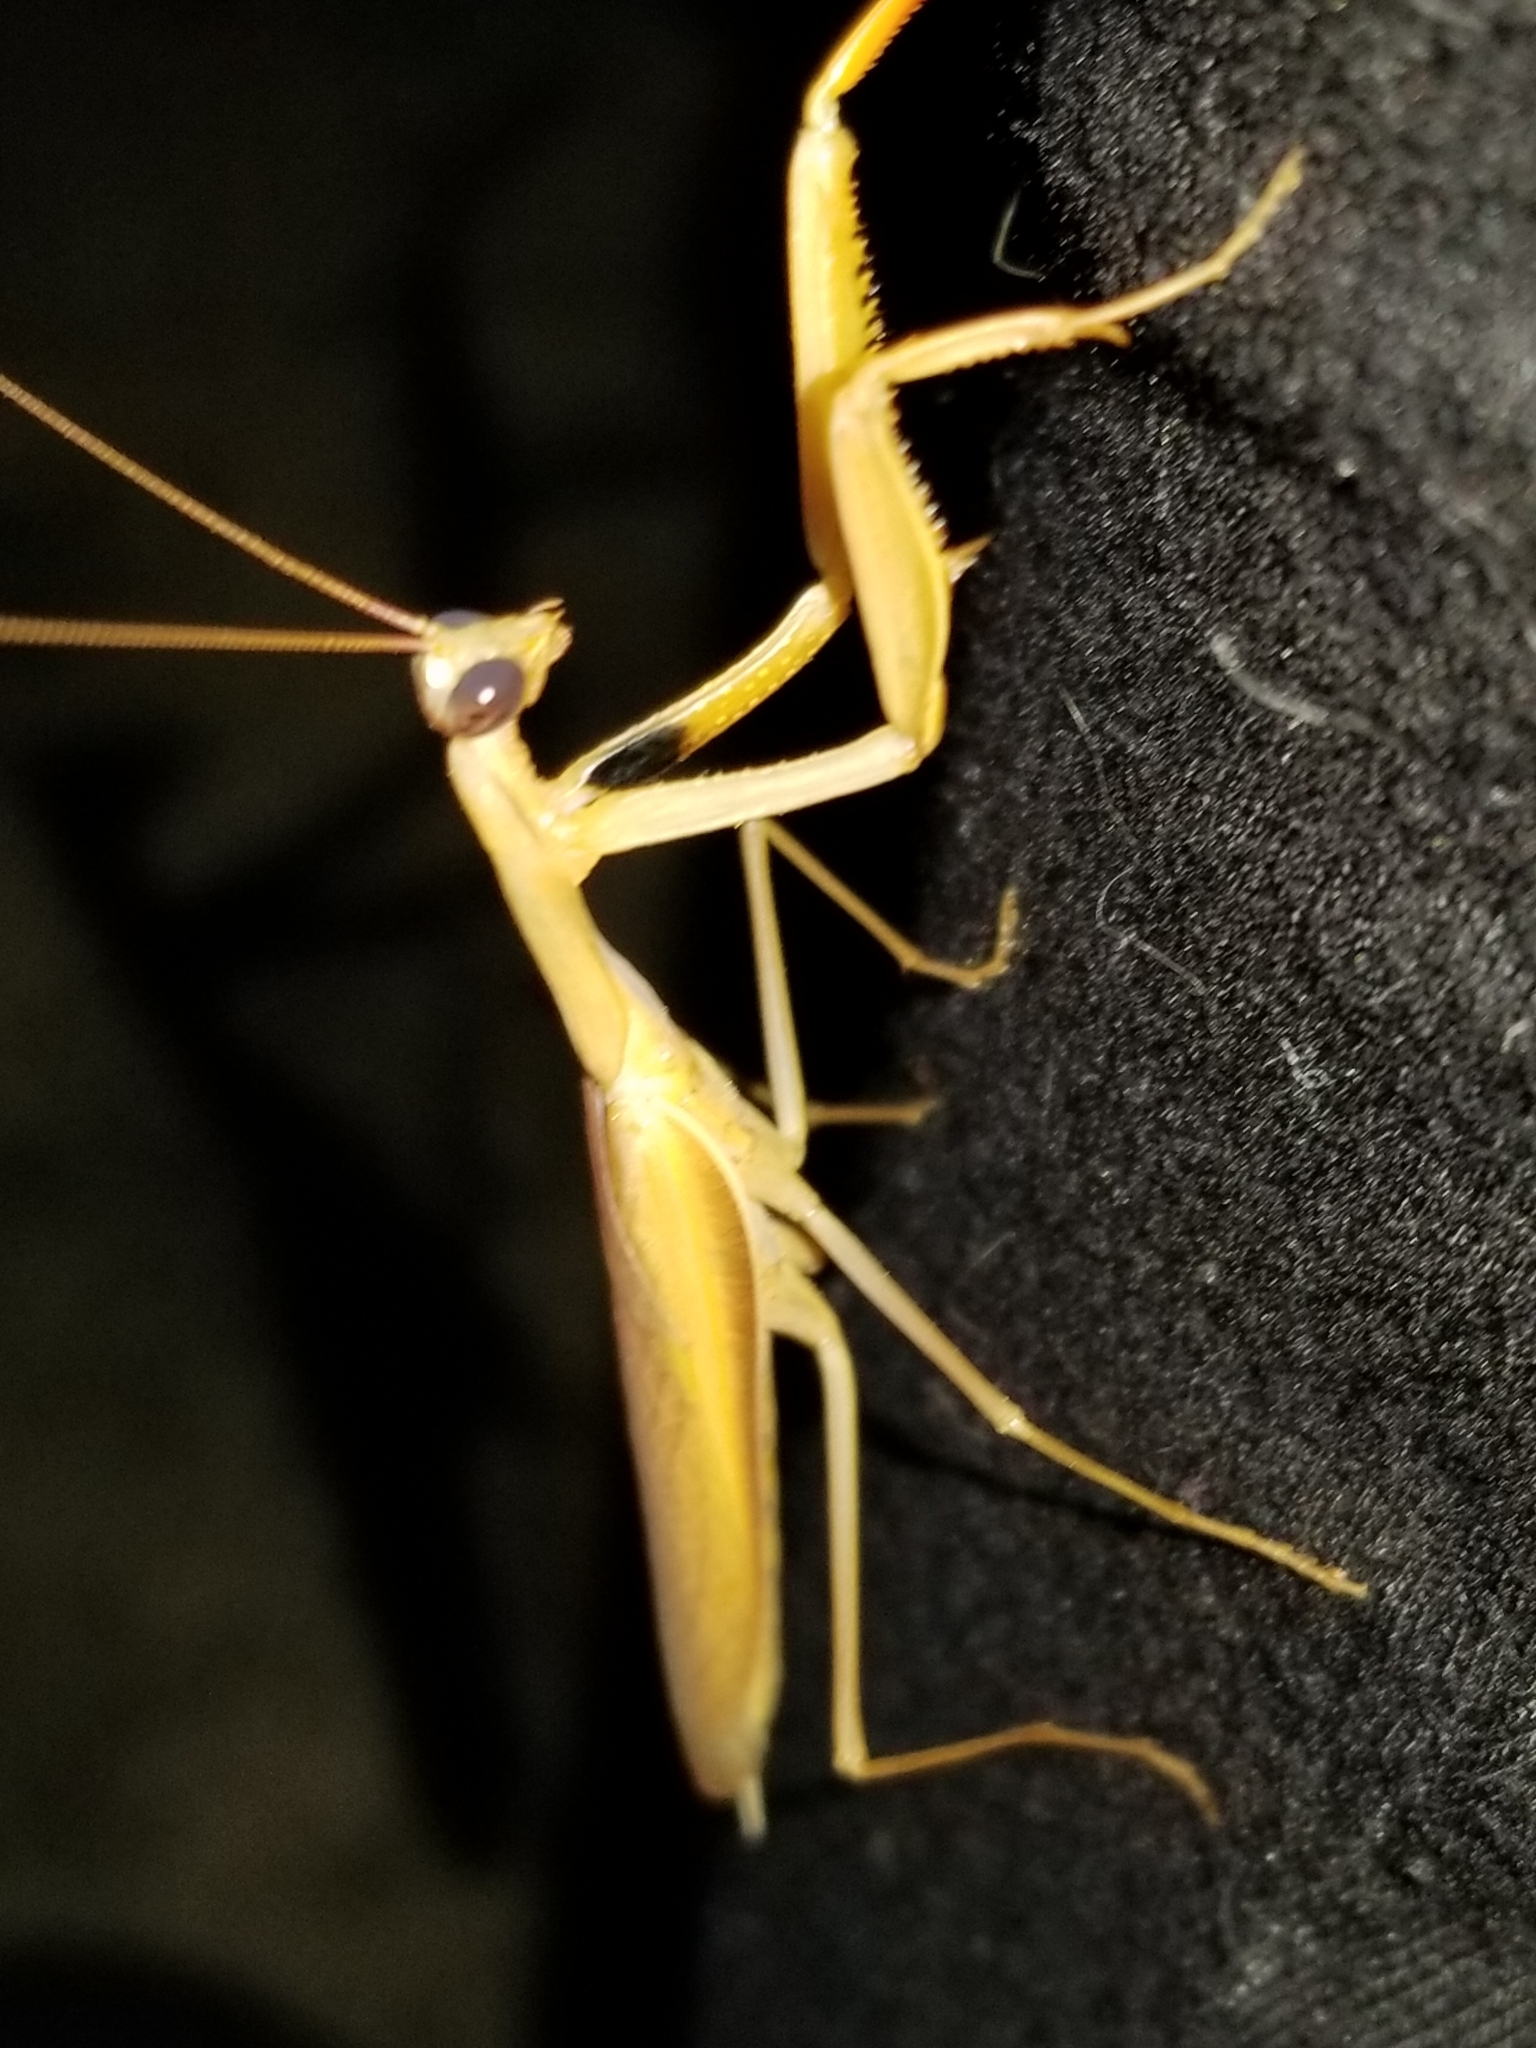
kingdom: Animalia
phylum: Arthropoda
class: Insecta
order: Mantodea
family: Mantidae
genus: Mantis
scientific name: Mantis religiosa
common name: Praying mantis
